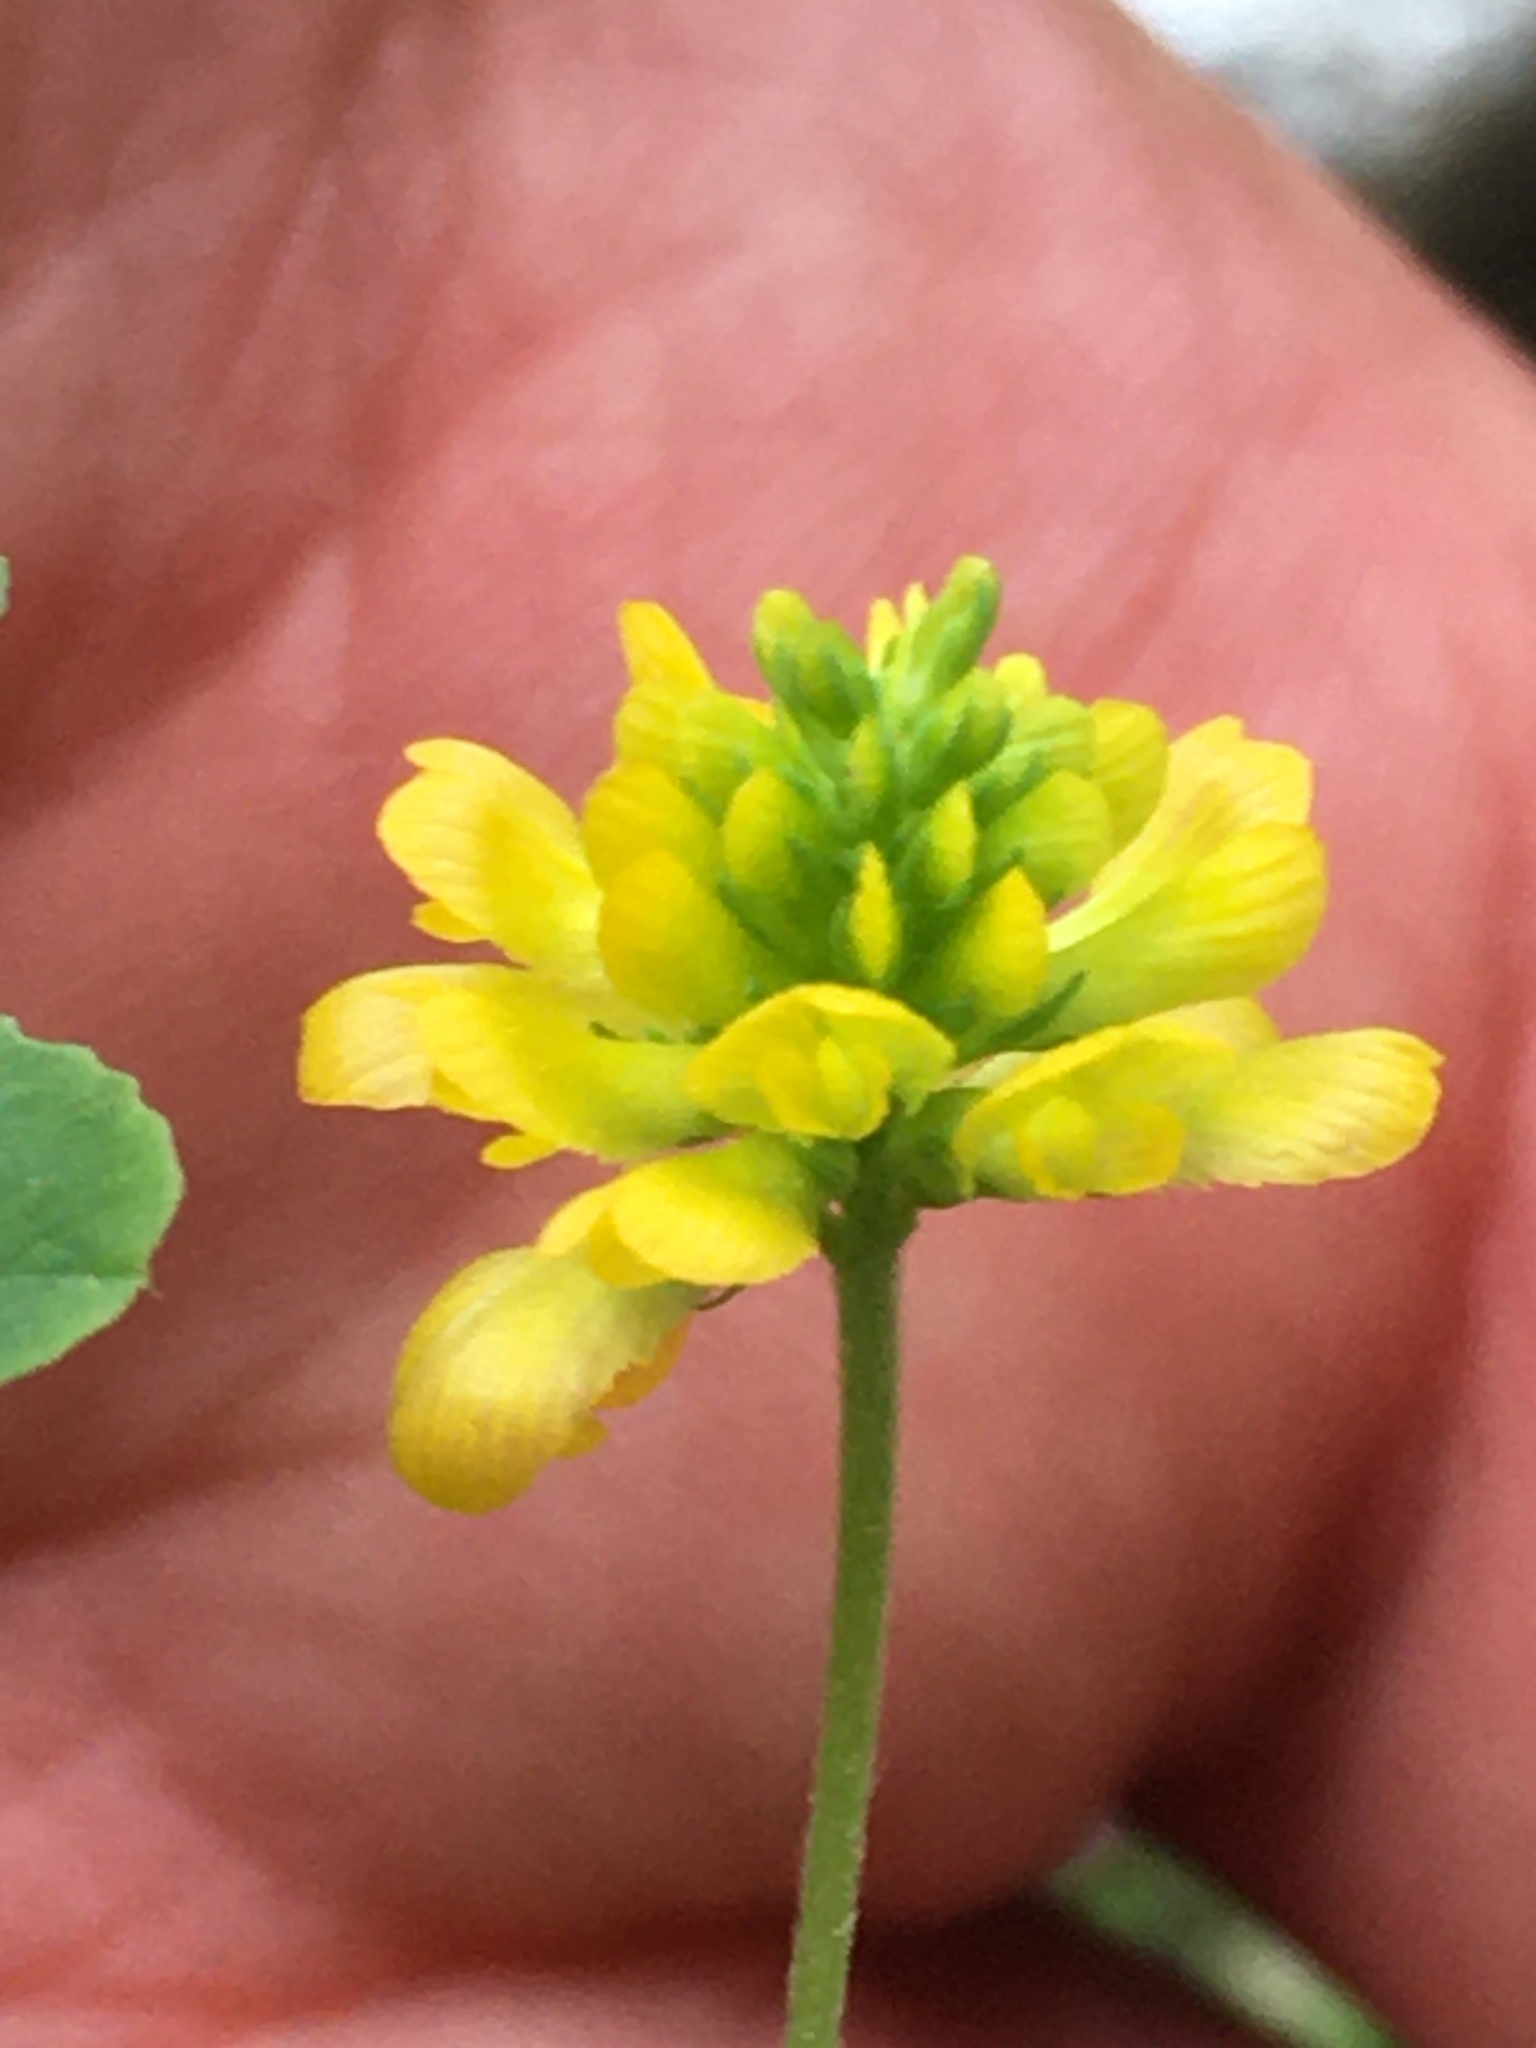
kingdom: Plantae
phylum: Tracheophyta
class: Magnoliopsida
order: Fabales
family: Fabaceae
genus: Trifolium
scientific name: Trifolium aureum
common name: Golden clover
